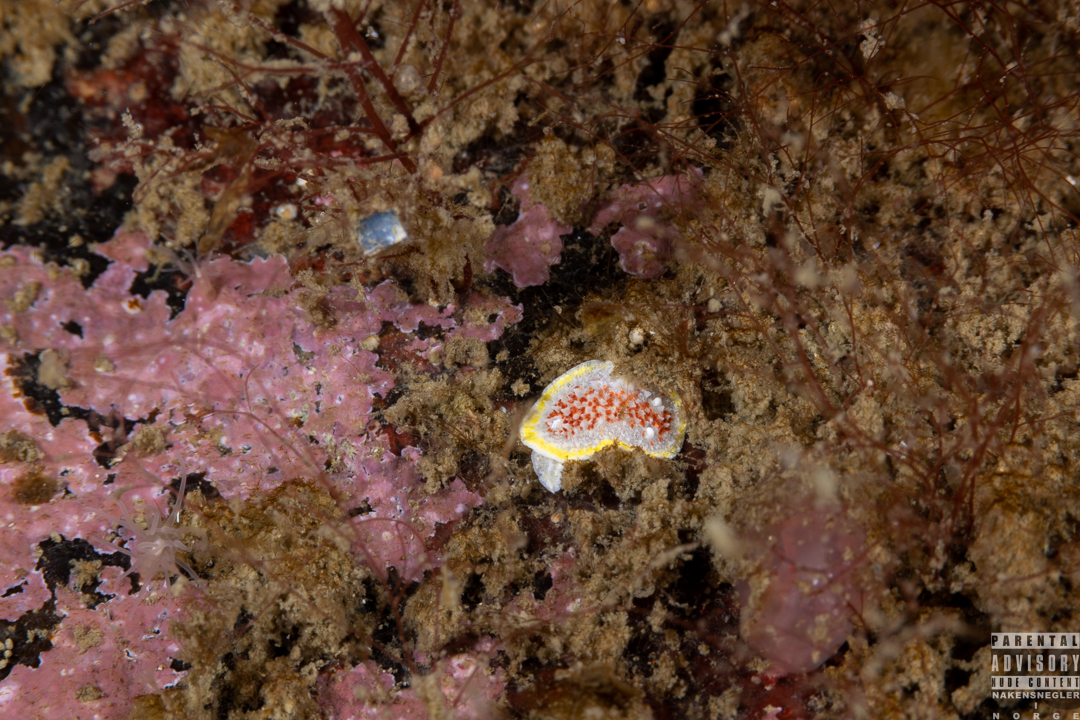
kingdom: Animalia
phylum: Mollusca
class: Gastropoda
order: Nudibranchia
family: Calycidorididae
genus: Diaphorodoris
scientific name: Diaphorodoris luteocincta
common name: Fried egg nudibranch
